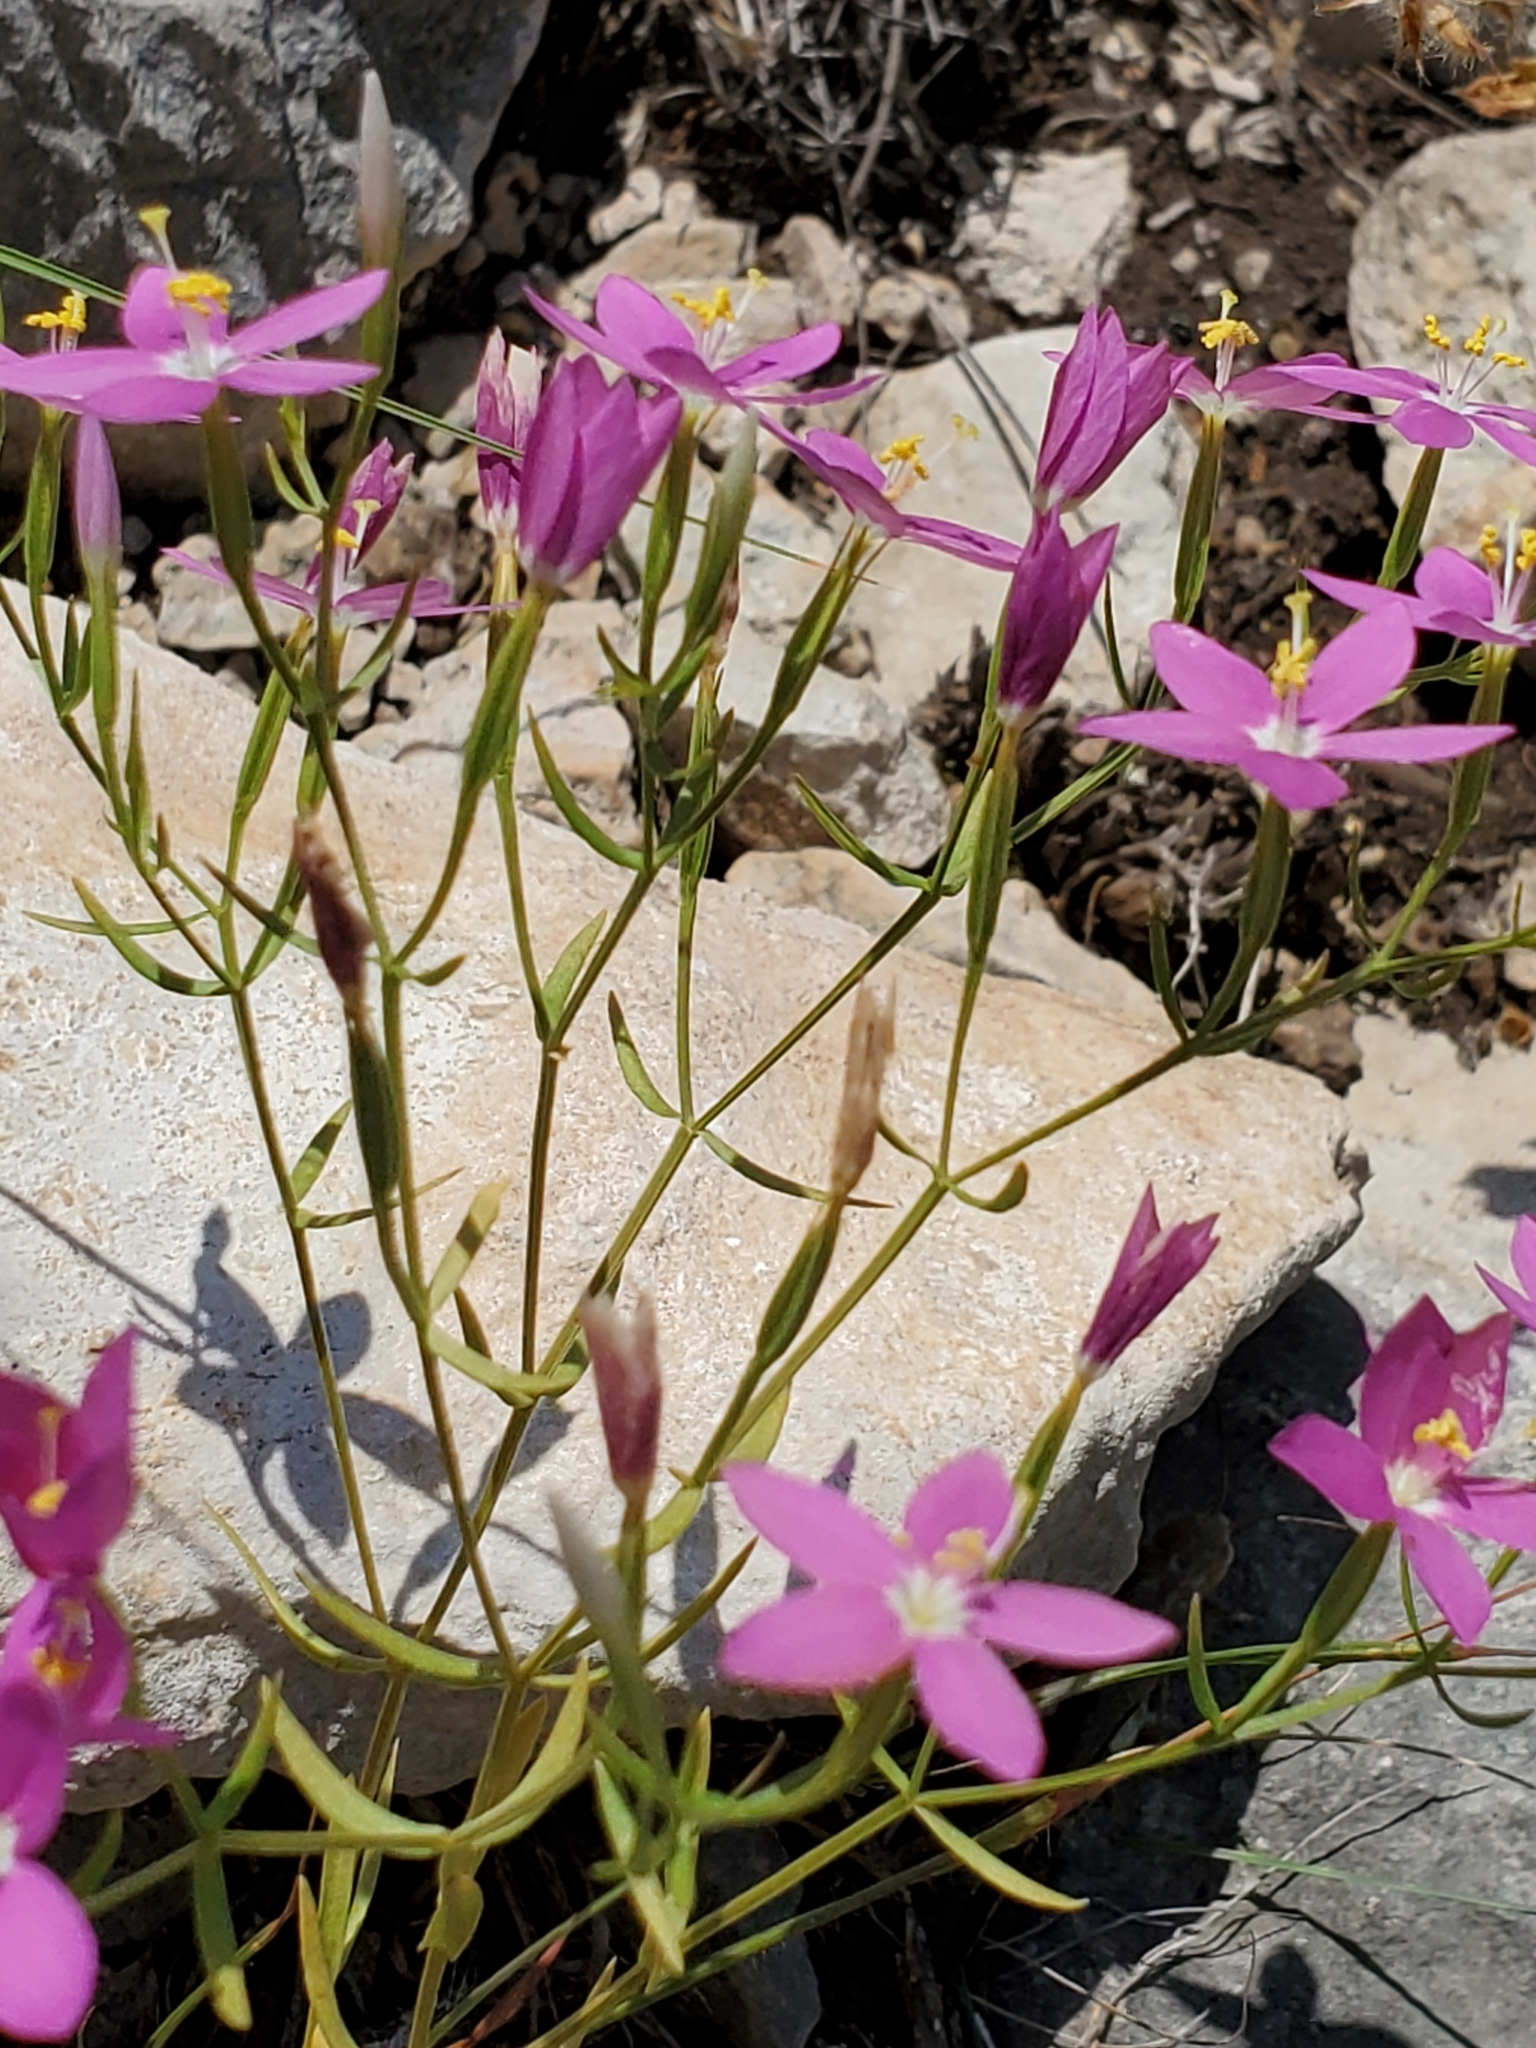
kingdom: Plantae
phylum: Tracheophyta
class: Magnoliopsida
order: Gentianales
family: Gentianaceae
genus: Zeltnera
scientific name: Zeltnera calycosa
